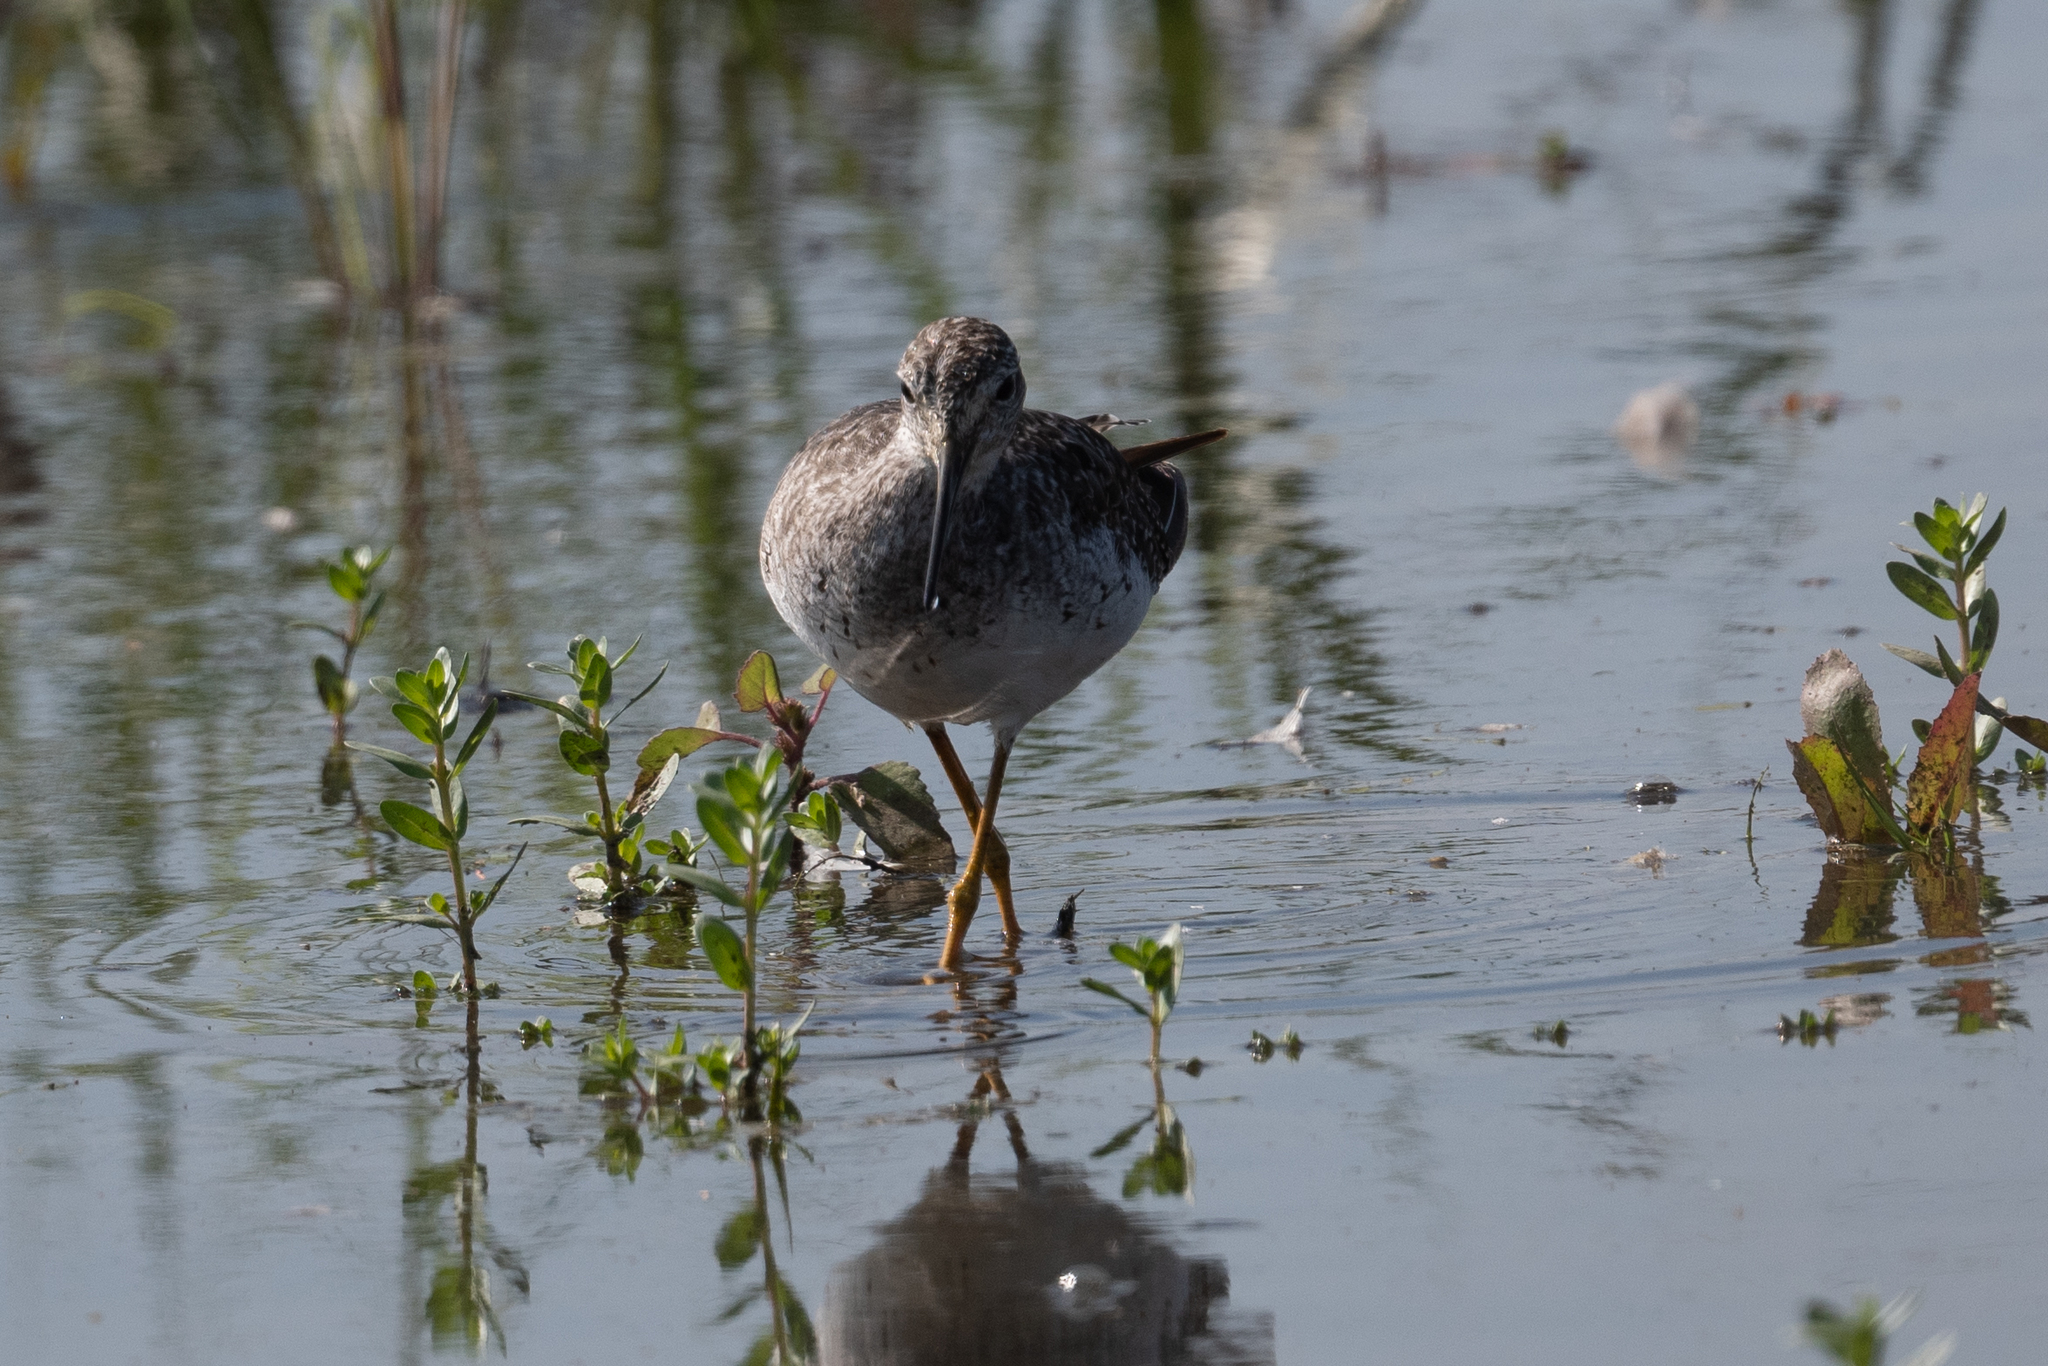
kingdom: Animalia
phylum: Chordata
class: Aves
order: Charadriiformes
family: Scolopacidae
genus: Tringa
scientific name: Tringa melanoleuca
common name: Greater yellowlegs
